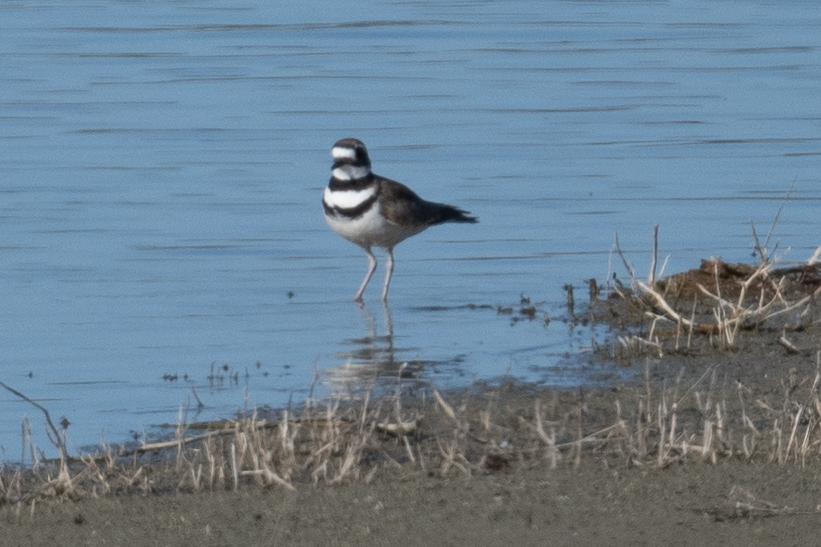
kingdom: Animalia
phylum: Chordata
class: Aves
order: Charadriiformes
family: Charadriidae
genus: Charadrius
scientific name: Charadrius vociferus
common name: Killdeer
